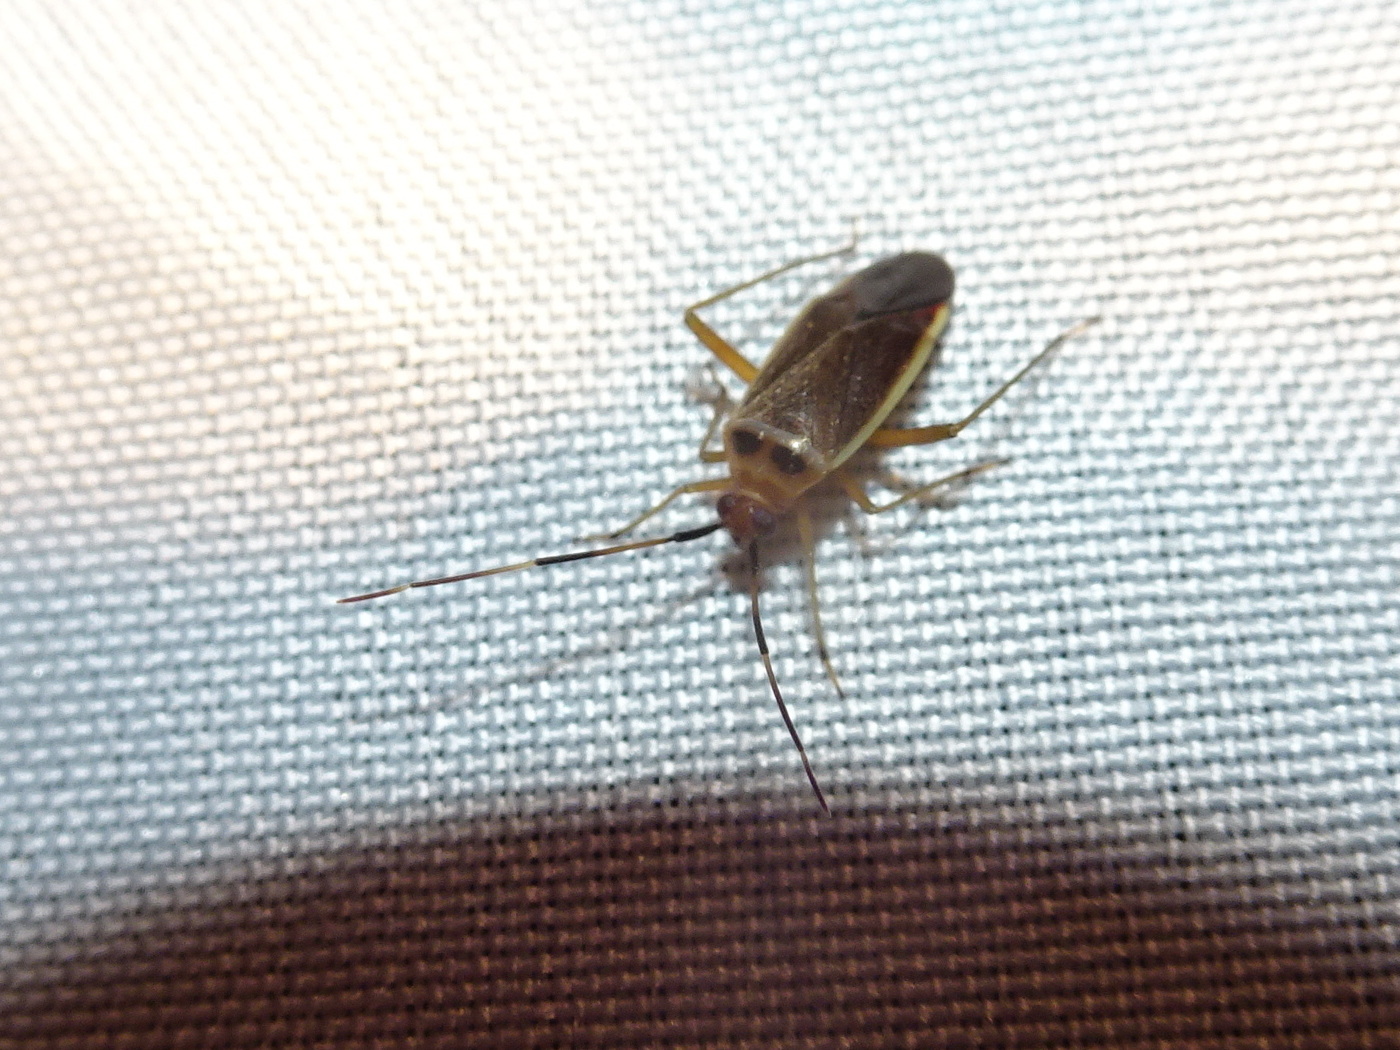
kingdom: Animalia
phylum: Arthropoda
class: Insecta
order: Hemiptera
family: Miridae
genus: Adelphocoris
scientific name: Adelphocoris rapidus
